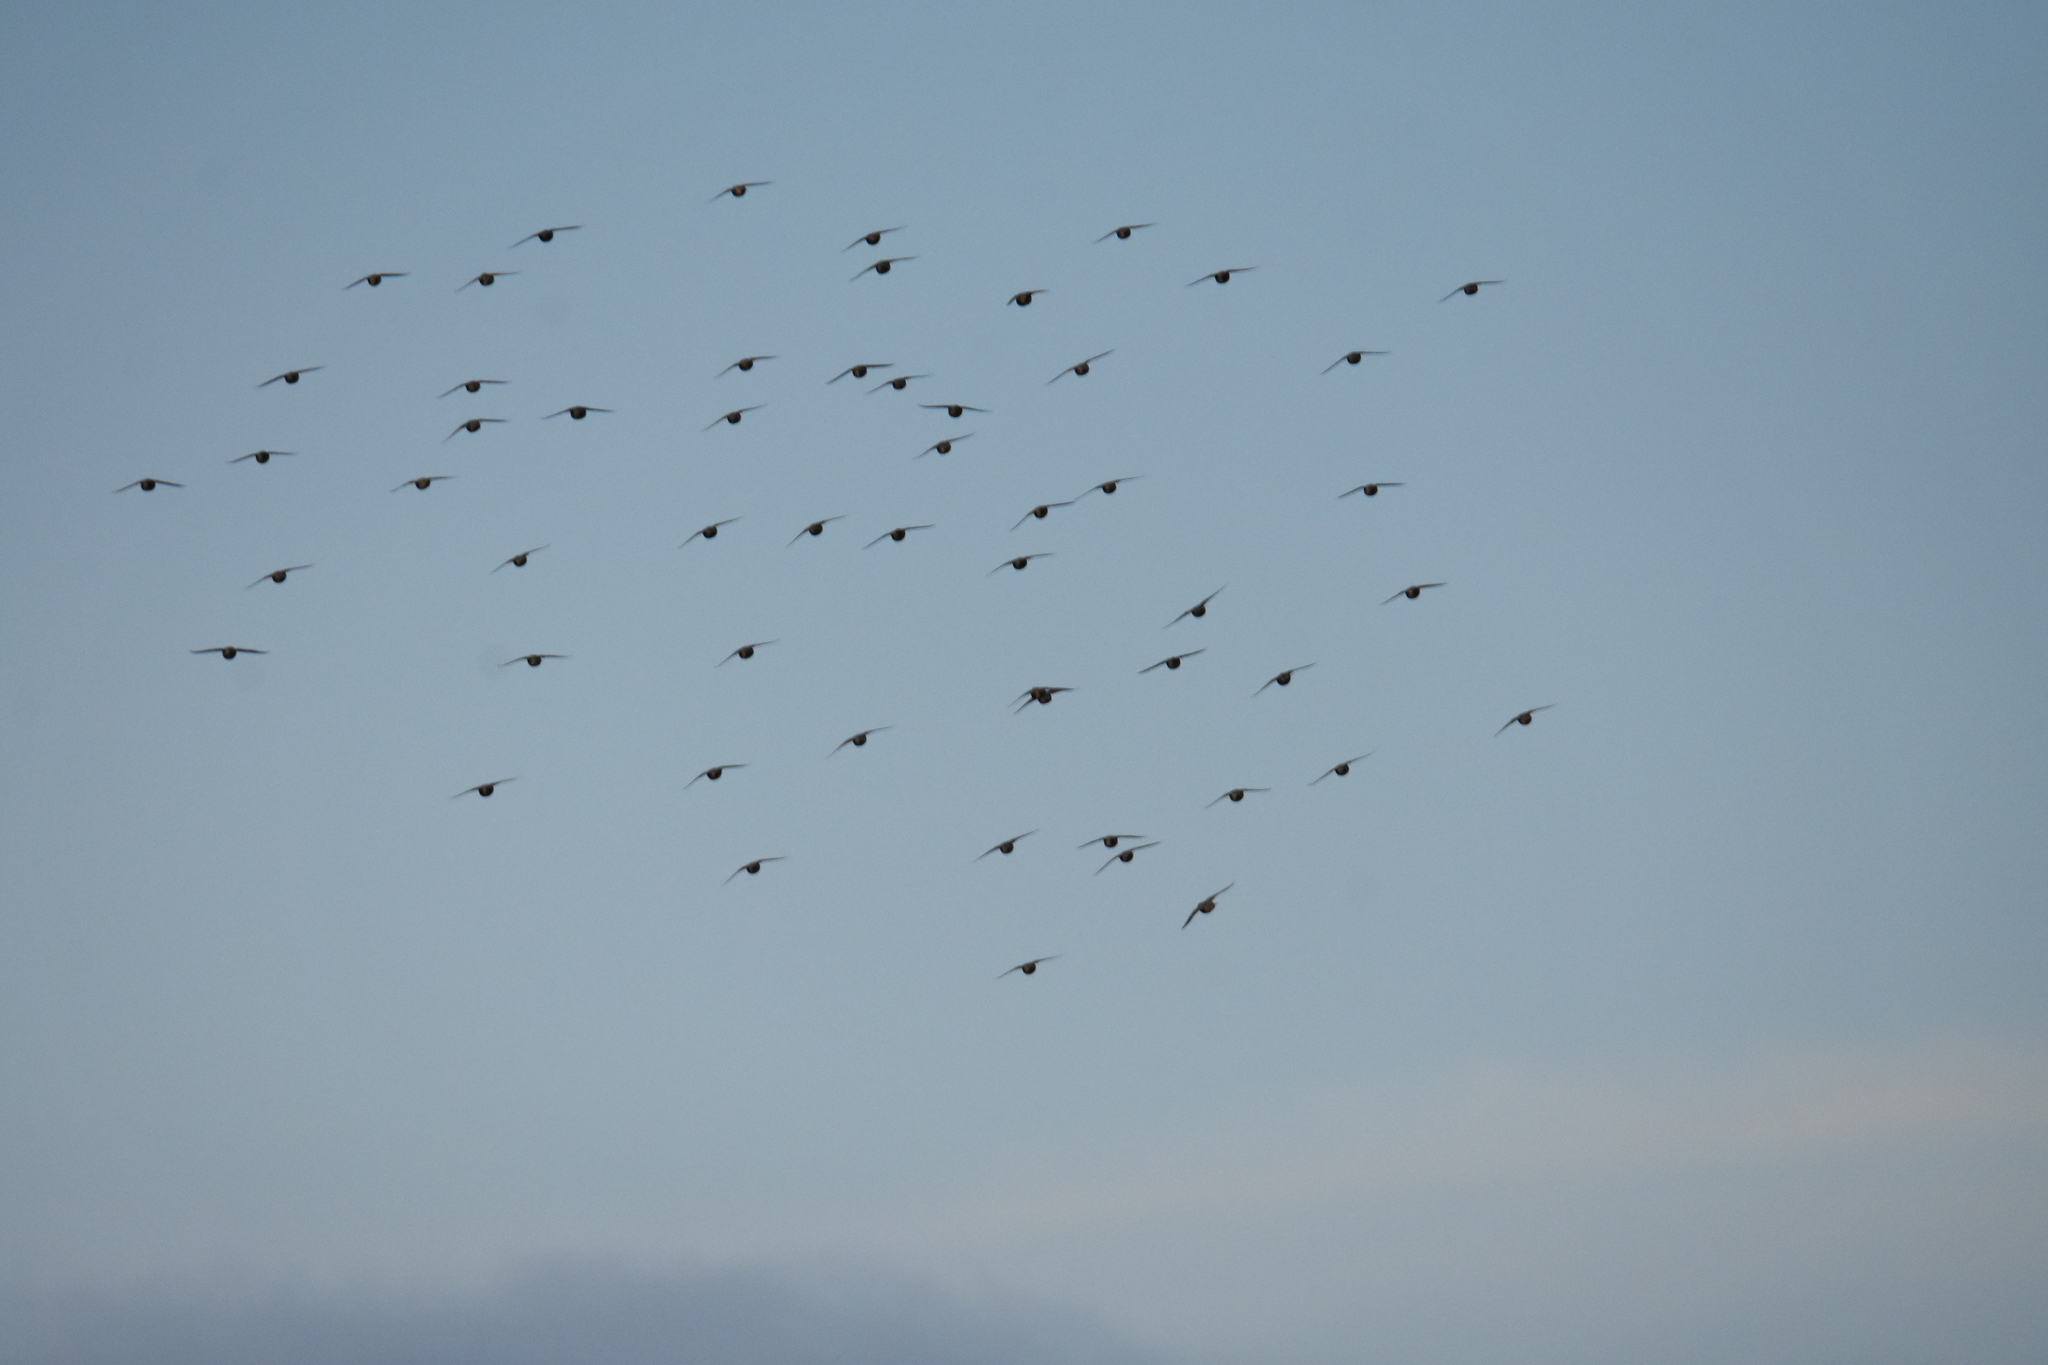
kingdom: Animalia
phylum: Chordata
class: Aves
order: Passeriformes
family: Sturnidae
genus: Sturnus
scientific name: Sturnus vulgaris
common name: Common starling
